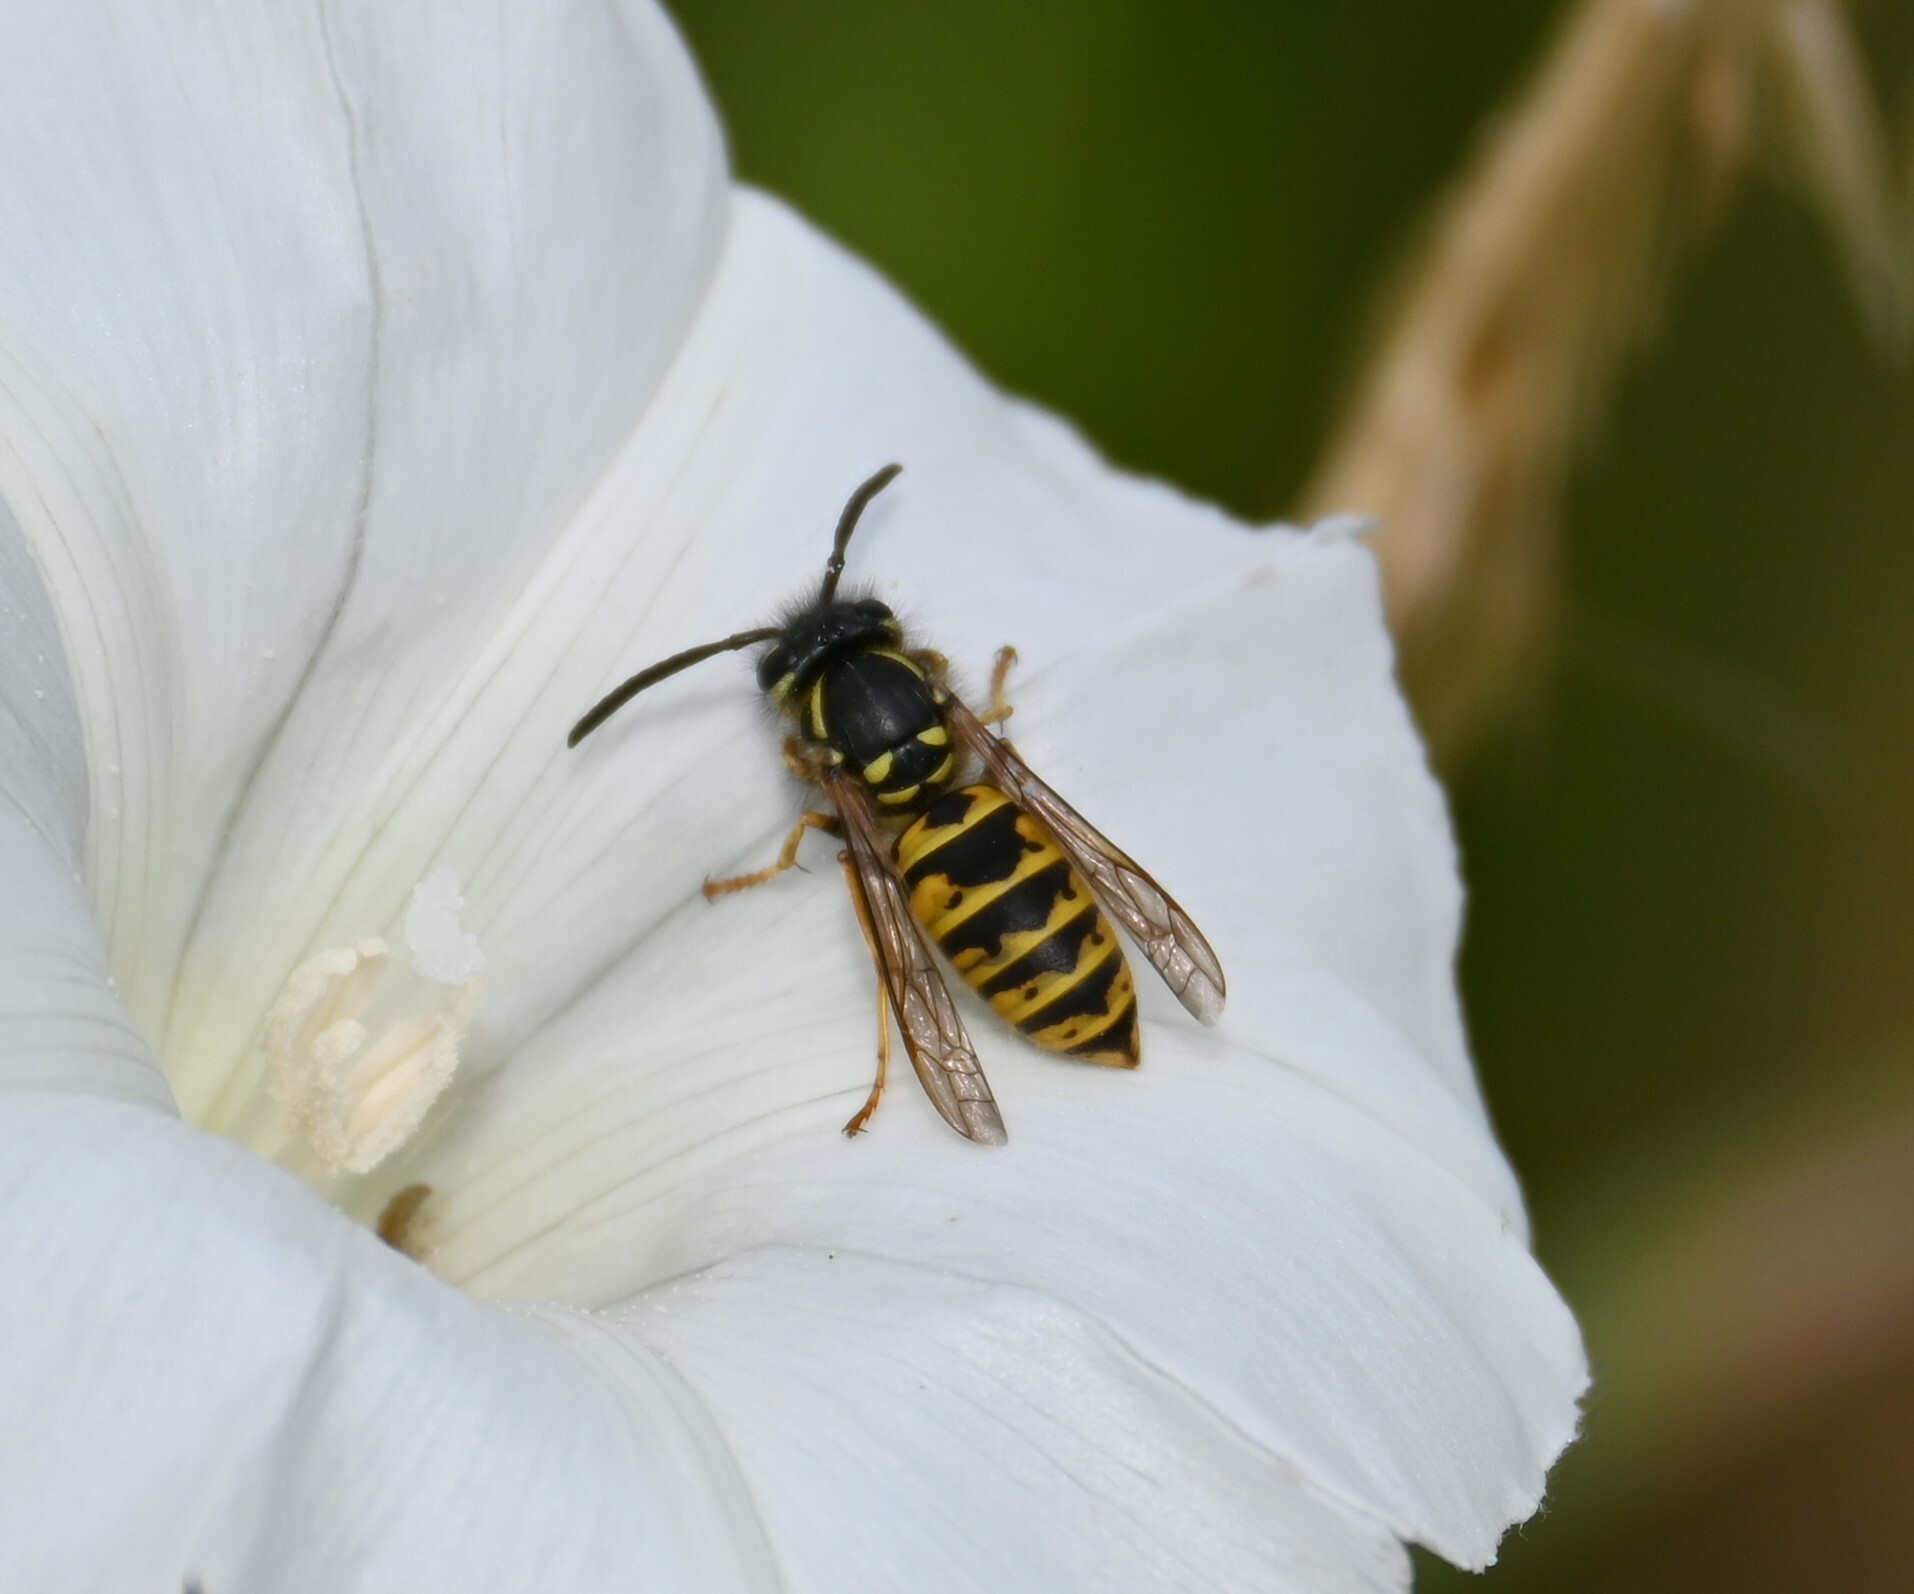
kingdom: Animalia
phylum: Arthropoda
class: Insecta
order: Hymenoptera
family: Vespidae
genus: Vespula
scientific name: Vespula vulgaris
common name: Common wasp
